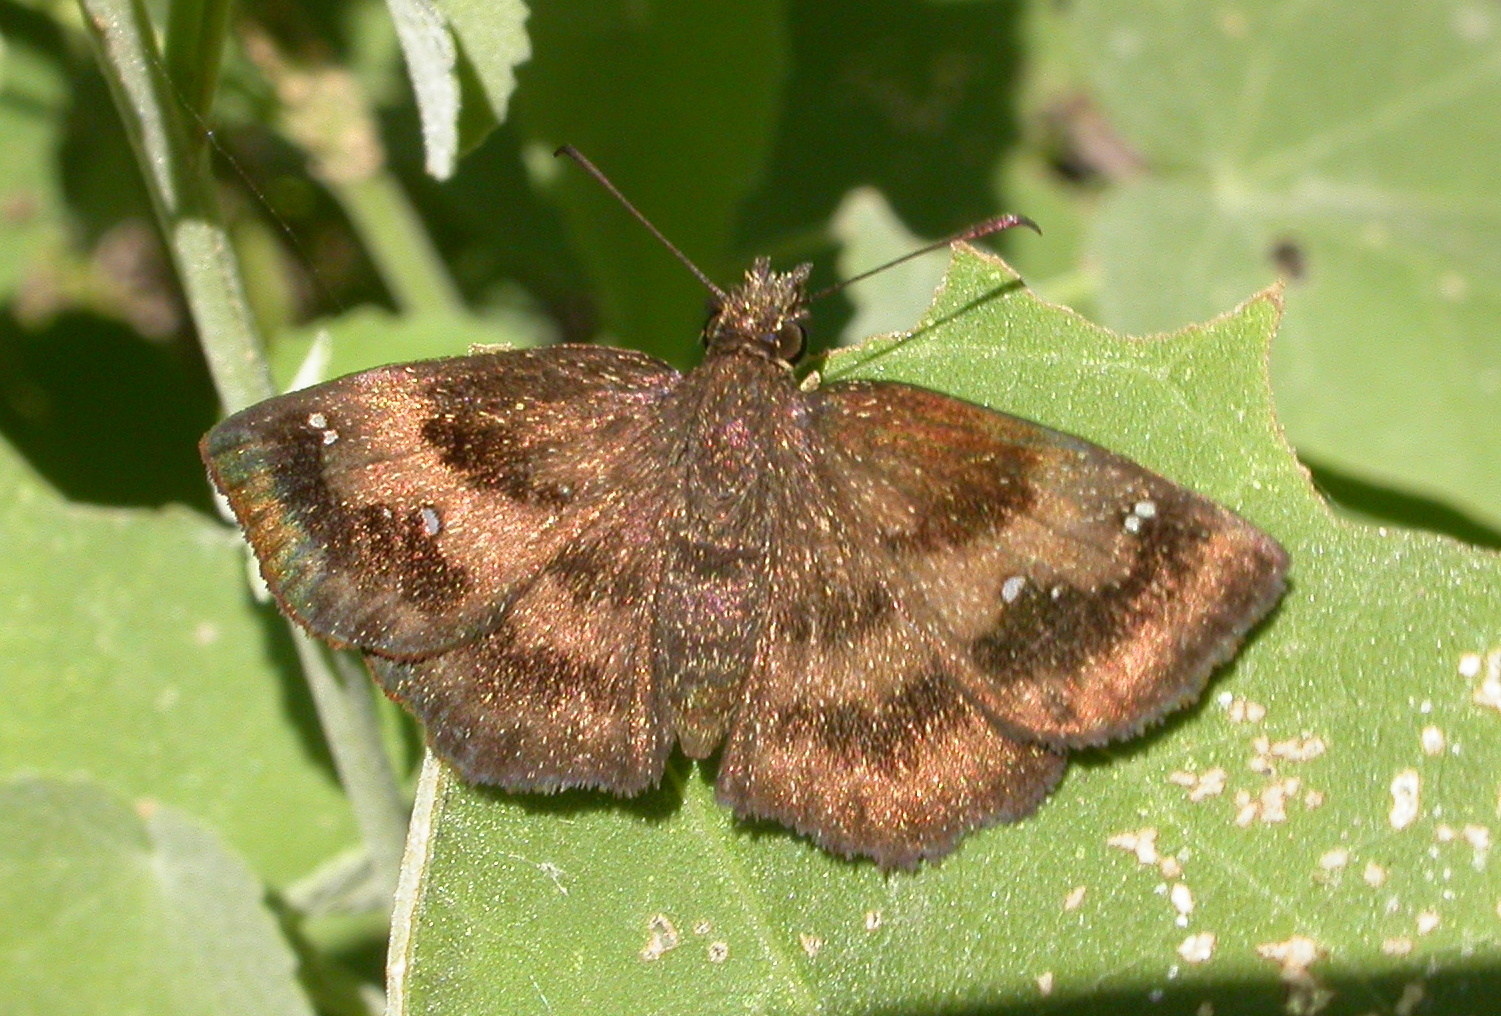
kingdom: Animalia
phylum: Arthropoda
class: Insecta
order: Lepidoptera
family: Hesperiidae
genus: Staphylus
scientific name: Staphylus mazans
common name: Mazans scallopwing
